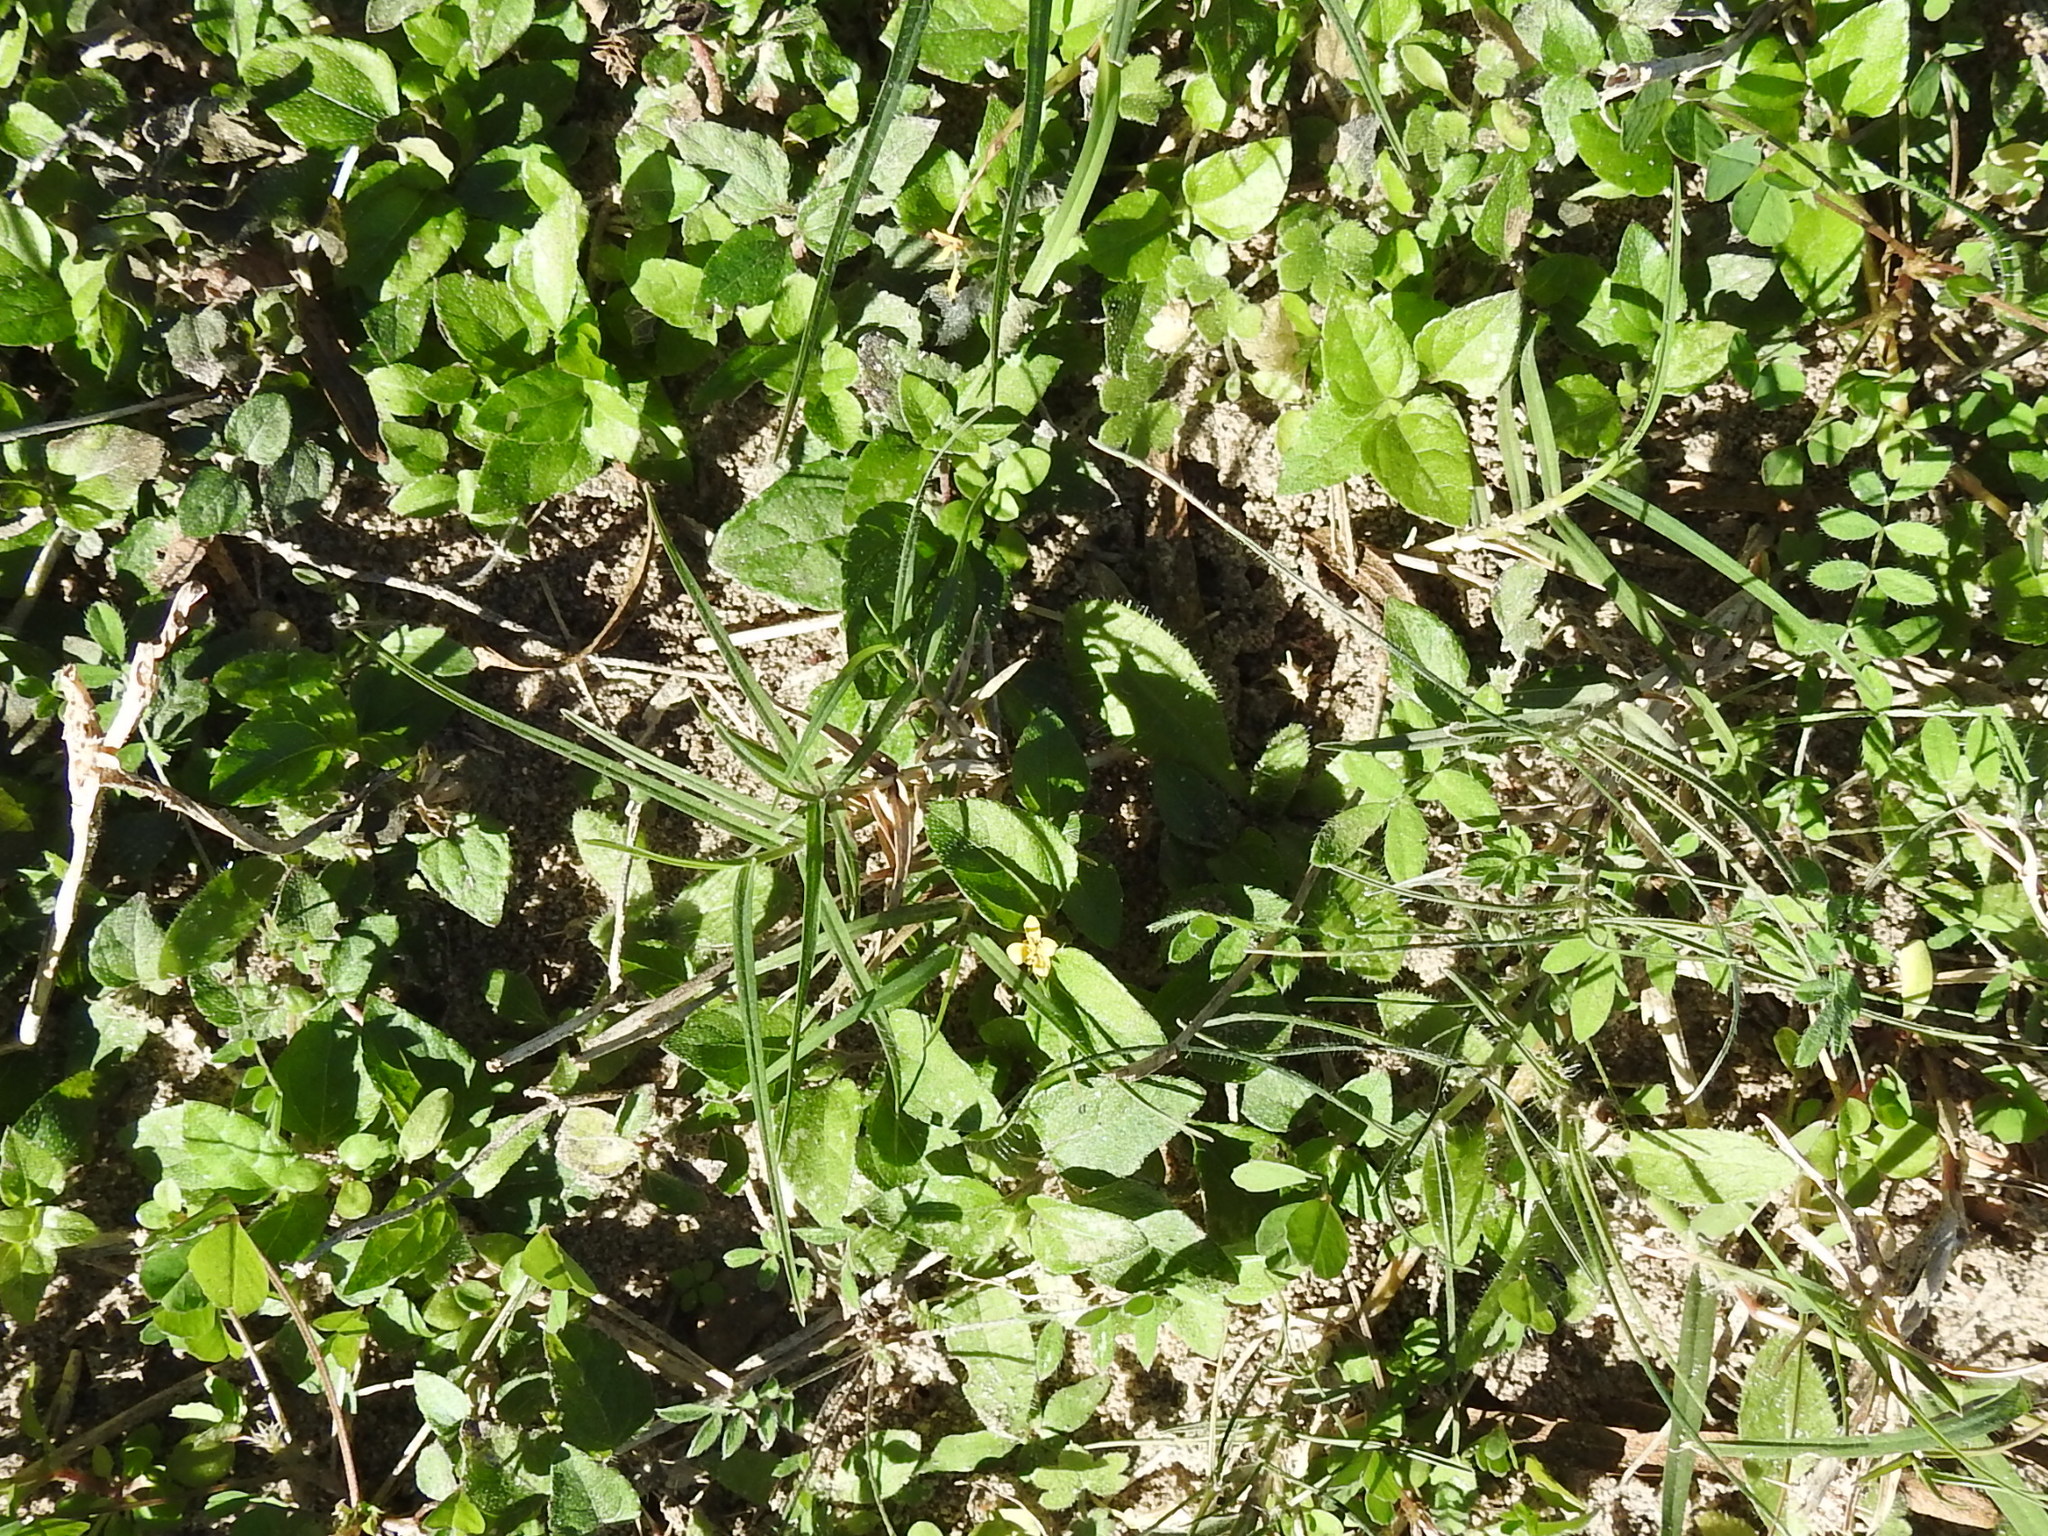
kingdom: Plantae
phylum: Tracheophyta
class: Magnoliopsida
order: Asterales
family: Asteraceae
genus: Calyptocarpus
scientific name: Calyptocarpus vialis
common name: Straggler daisy
